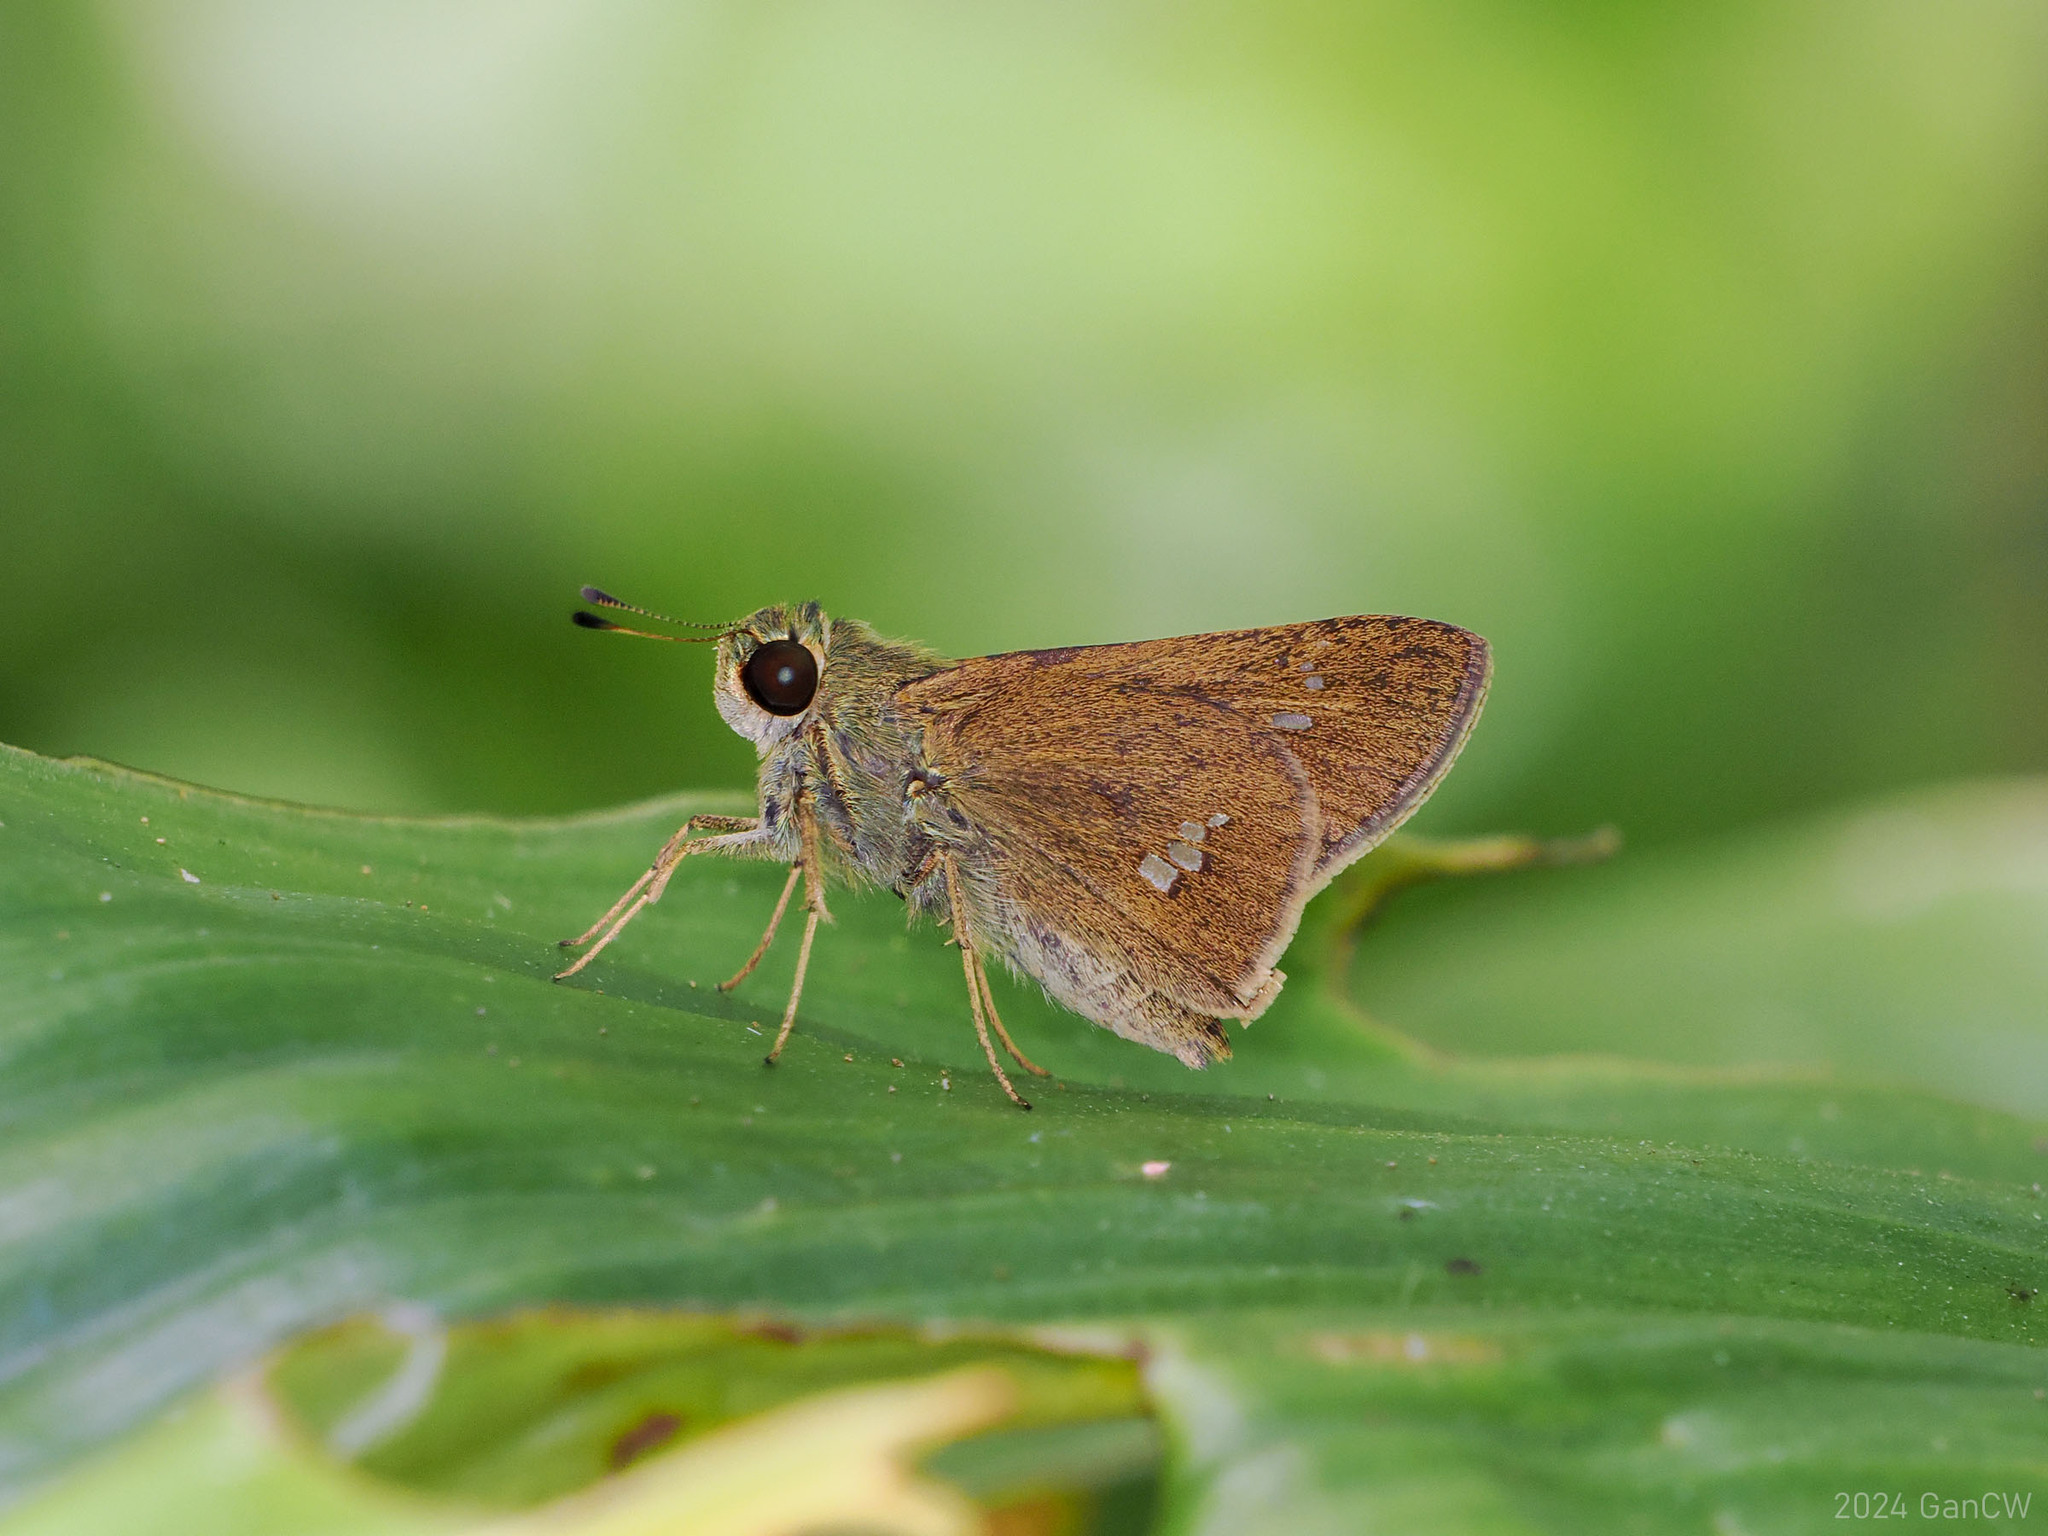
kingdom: Animalia
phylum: Arthropoda
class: Insecta
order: Lepidoptera
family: Hesperiidae
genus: Parnara
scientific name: Parnara
